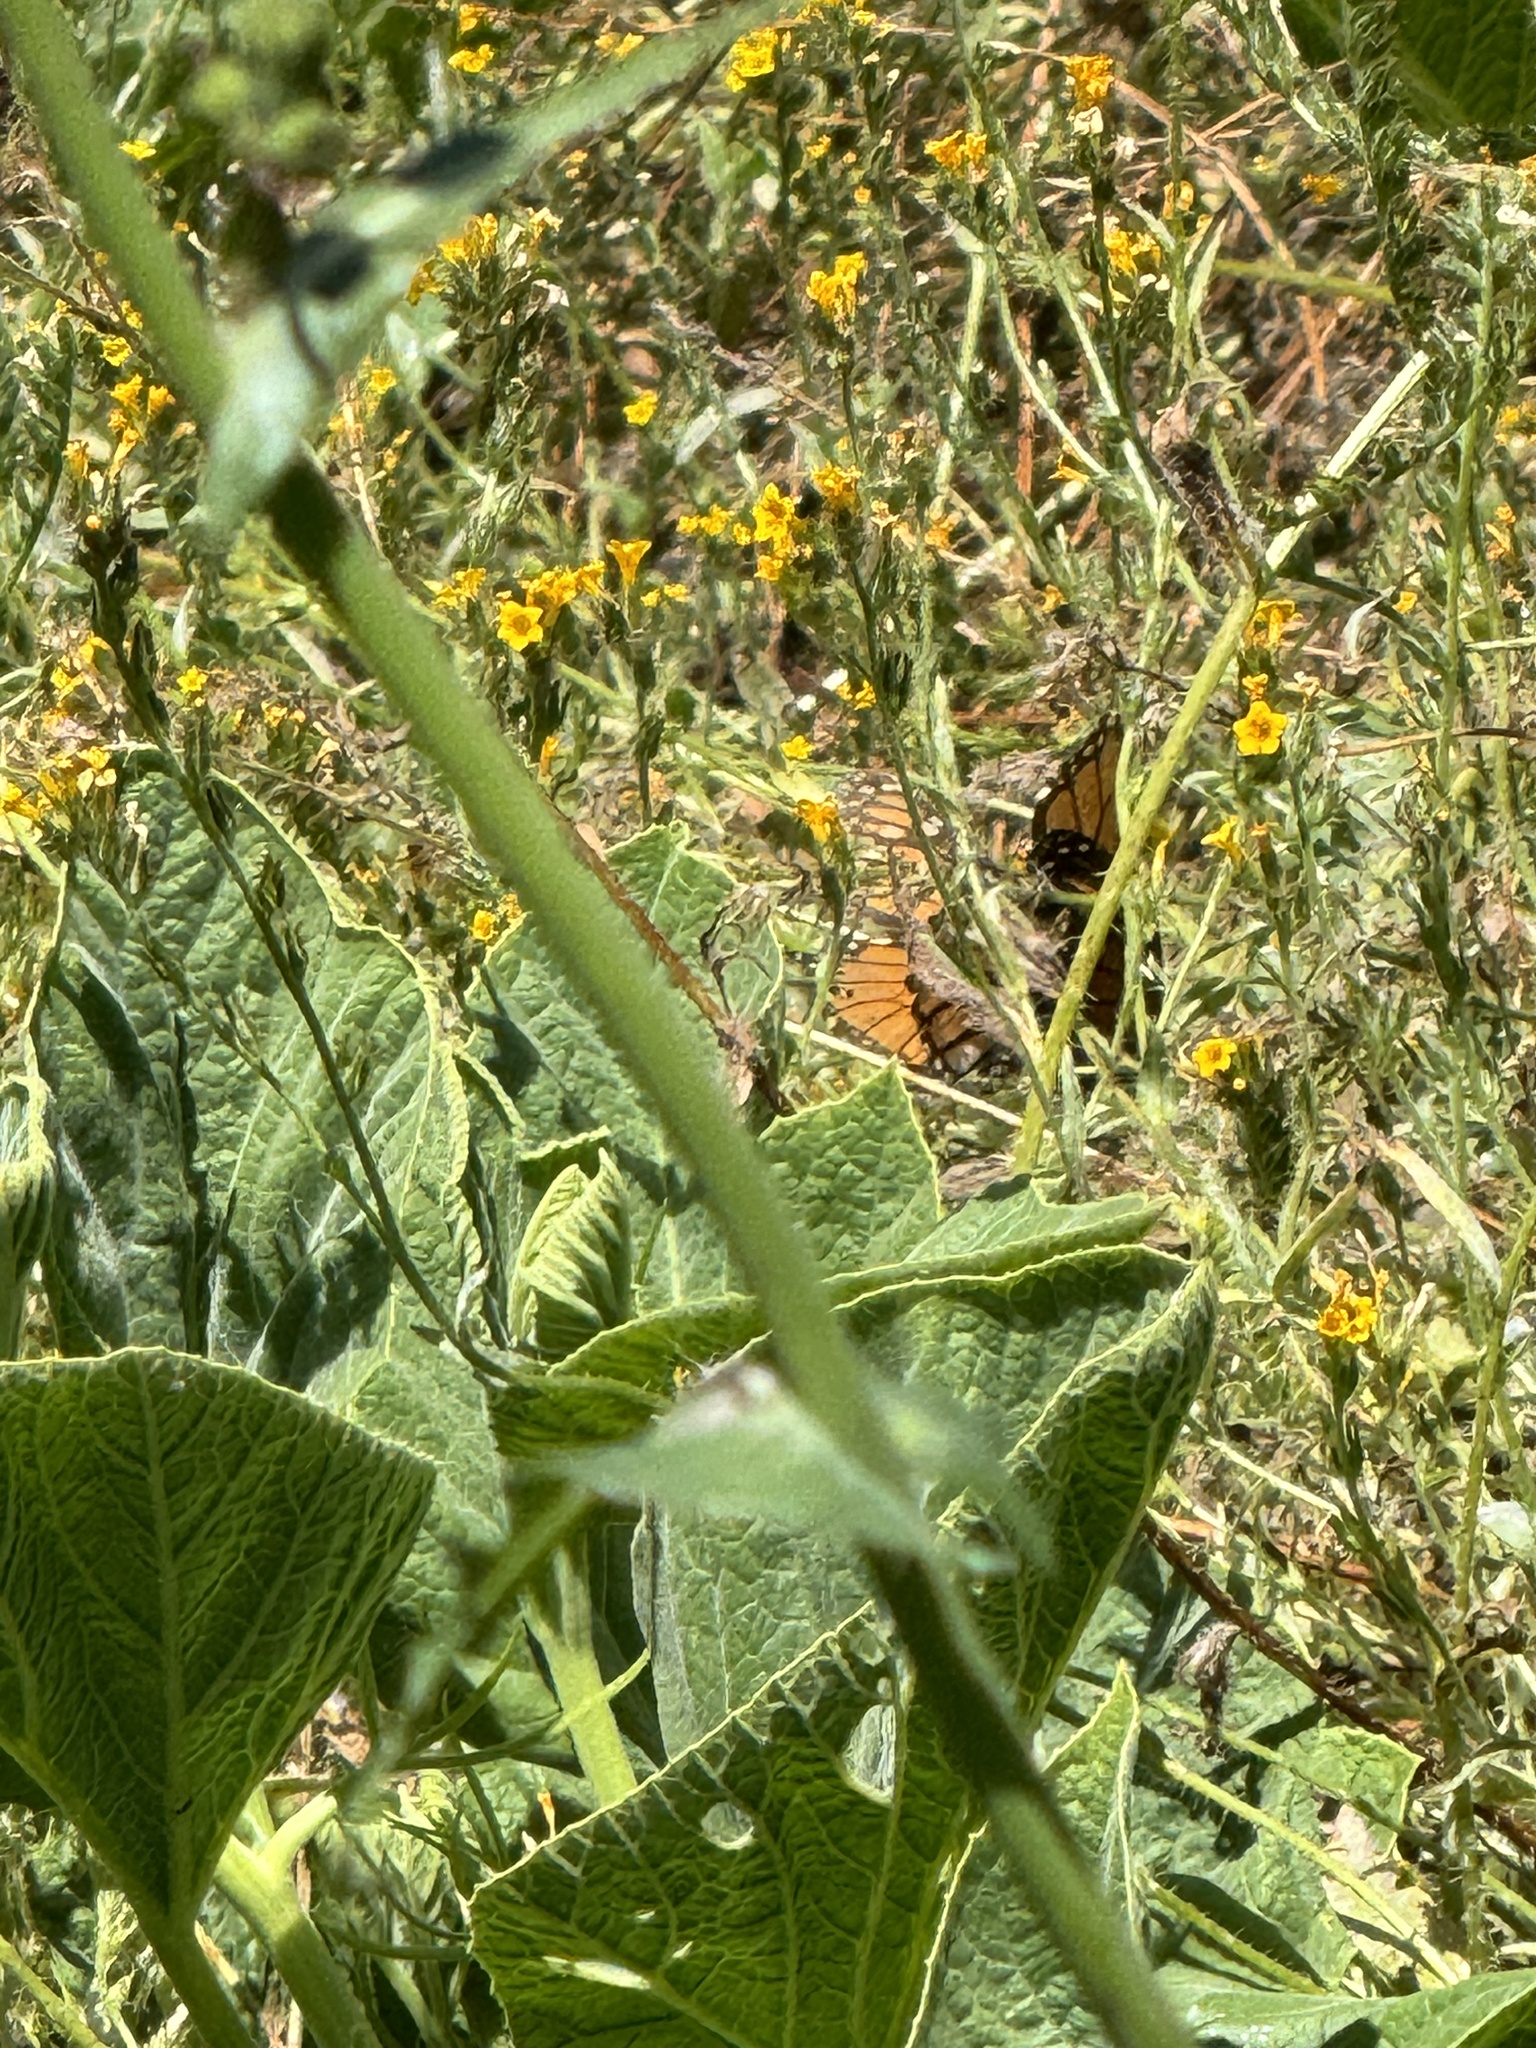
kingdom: Animalia
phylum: Arthropoda
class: Insecta
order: Lepidoptera
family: Nymphalidae
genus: Danaus
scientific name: Danaus plexippus
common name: Monarch
